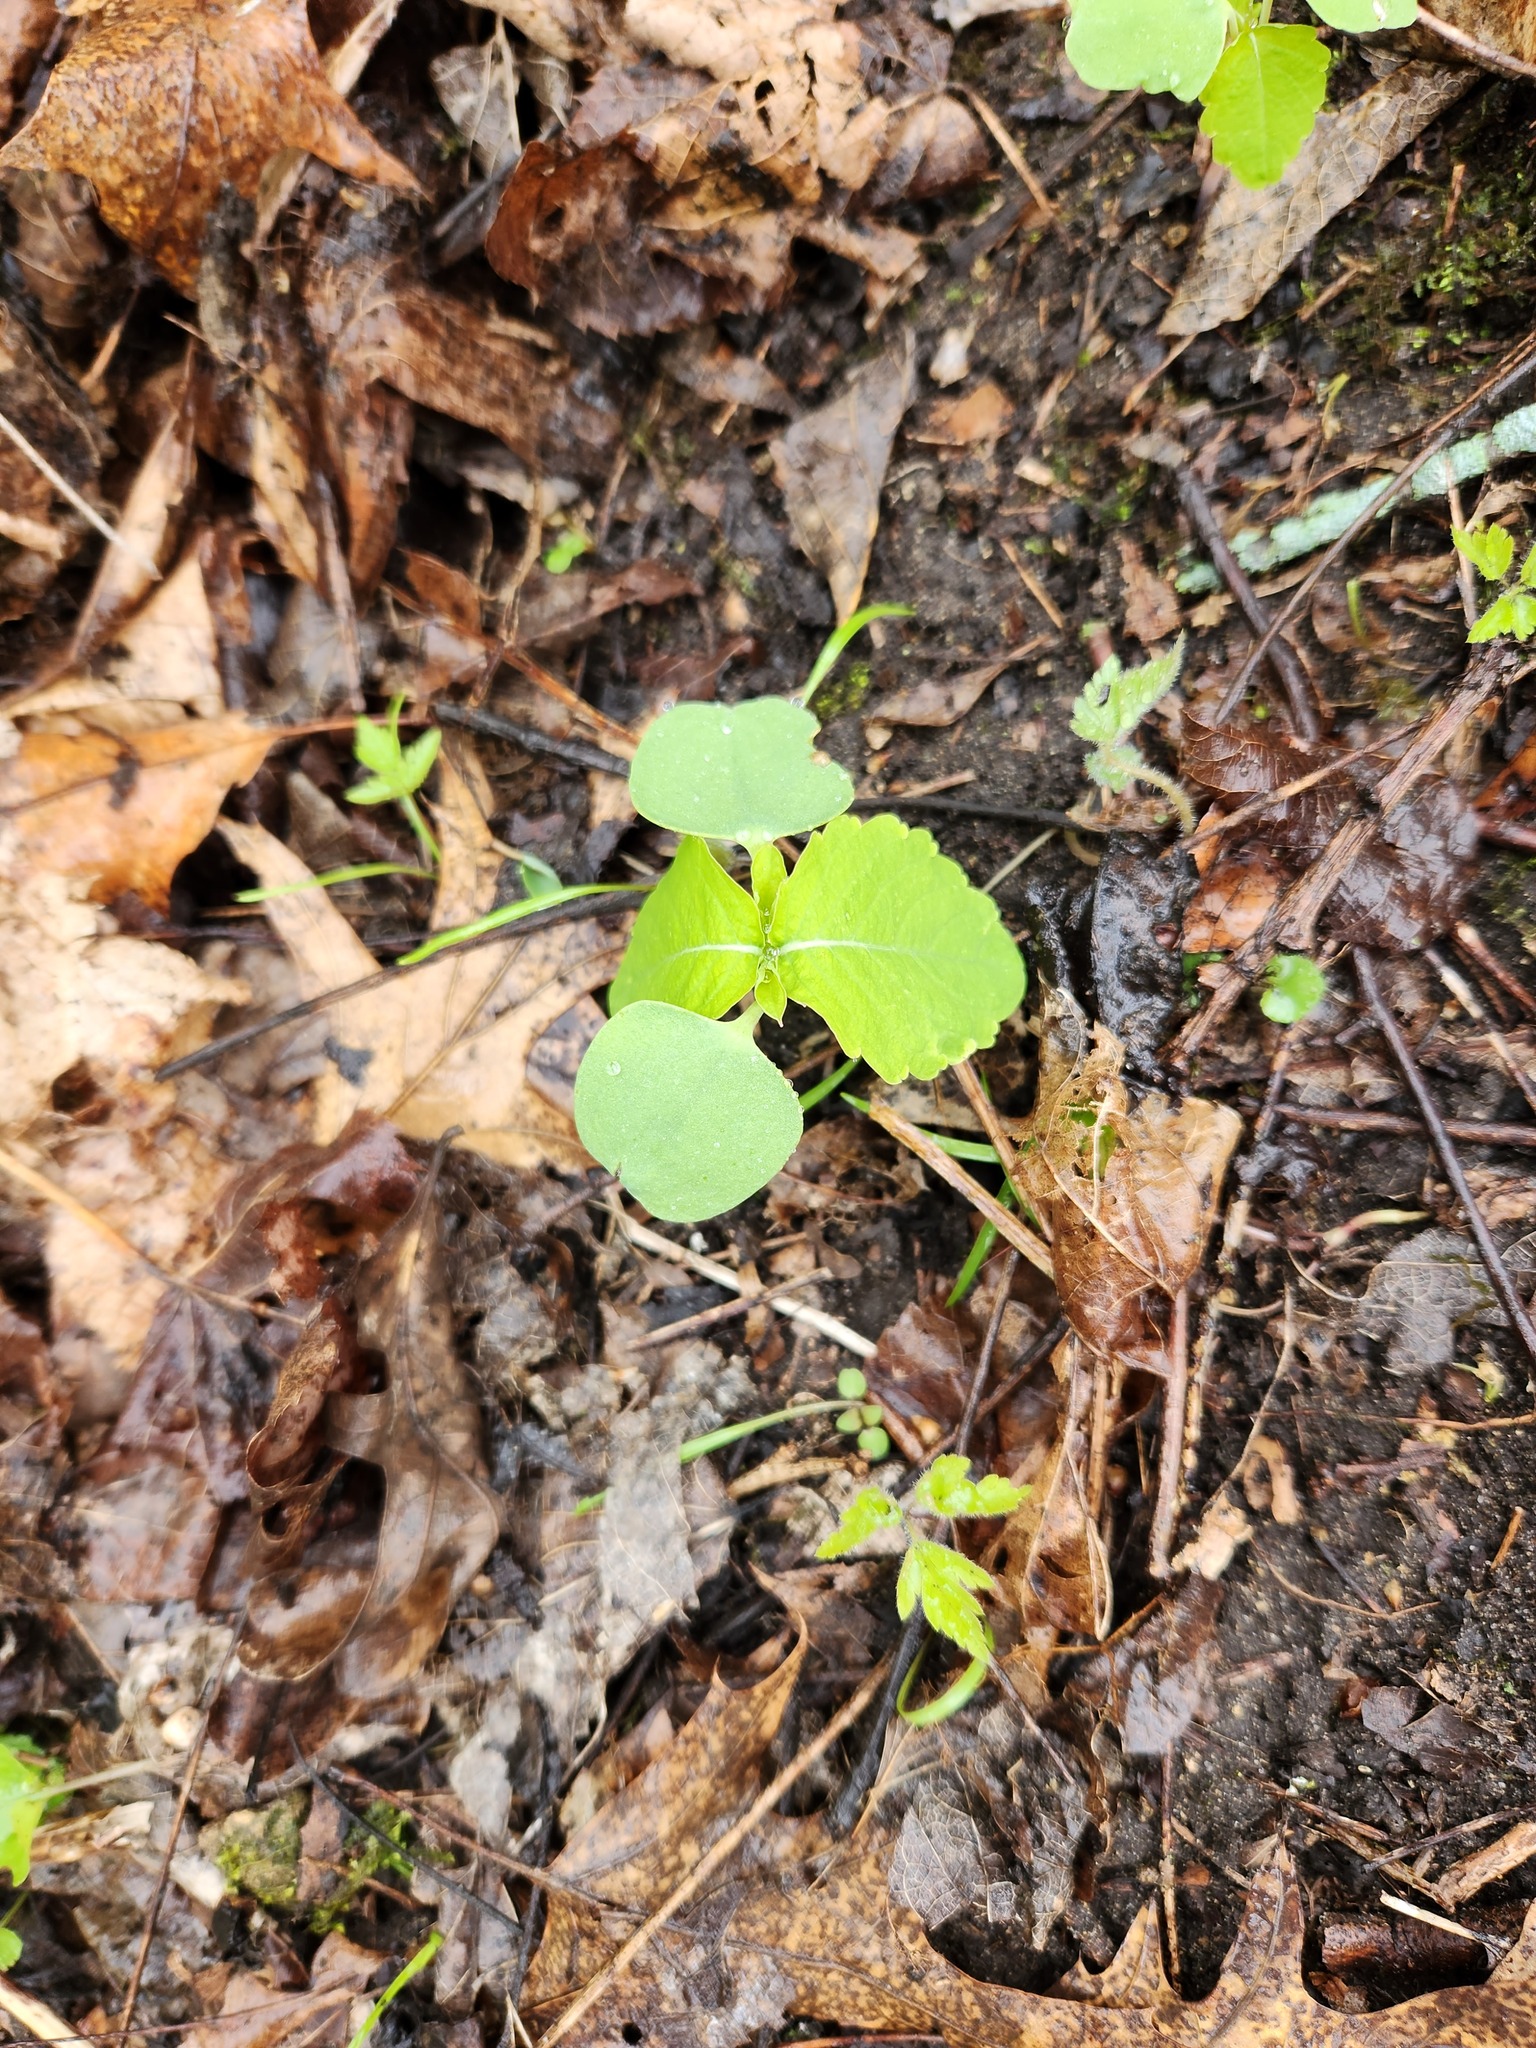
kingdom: Plantae
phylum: Tracheophyta
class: Magnoliopsida
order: Ericales
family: Balsaminaceae
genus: Impatiens
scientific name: Impatiens capensis
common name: Orange balsam
